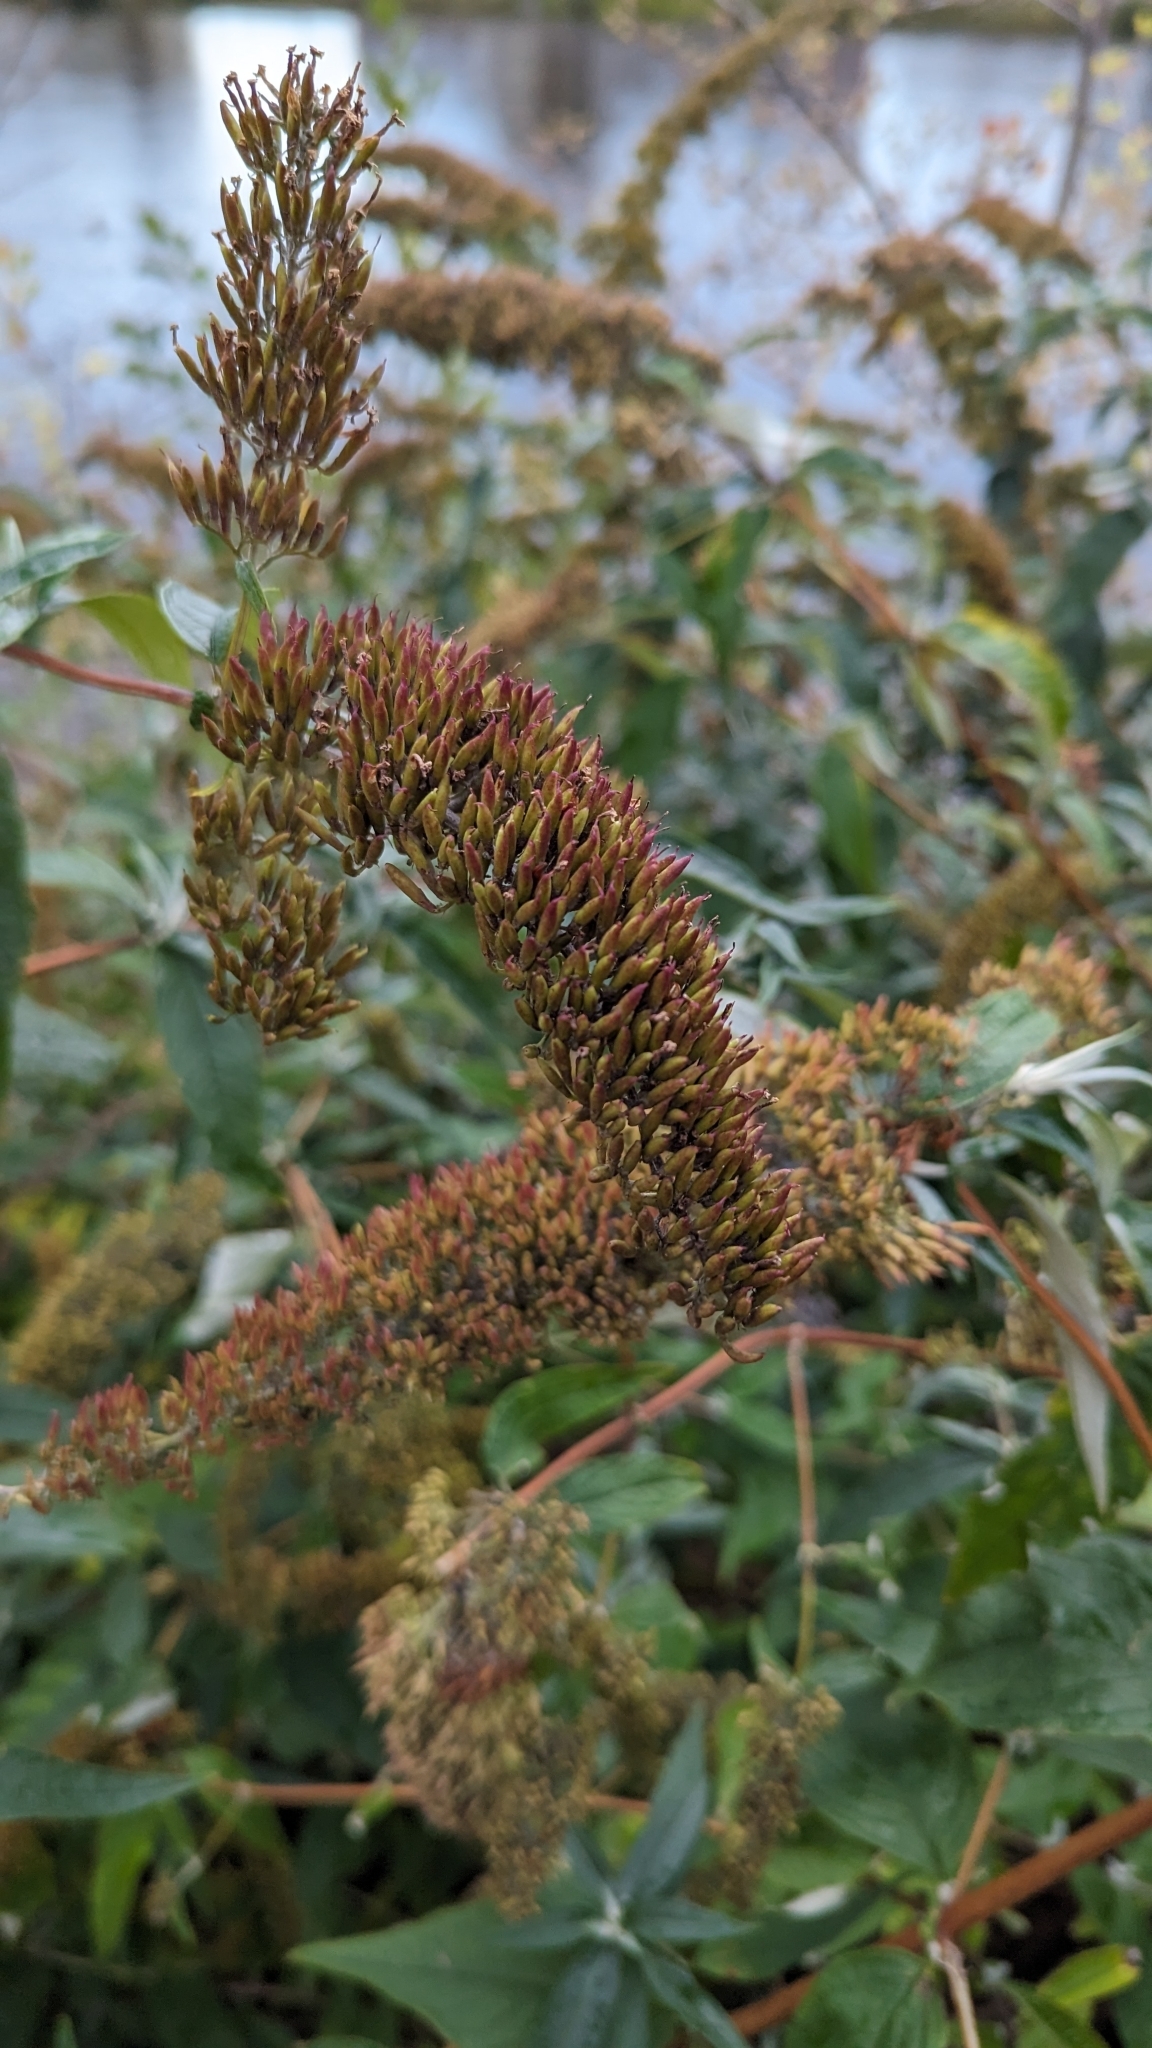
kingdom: Plantae
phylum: Tracheophyta
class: Magnoliopsida
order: Lamiales
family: Scrophulariaceae
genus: Buddleja
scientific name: Buddleja davidii
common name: Butterfly-bush
